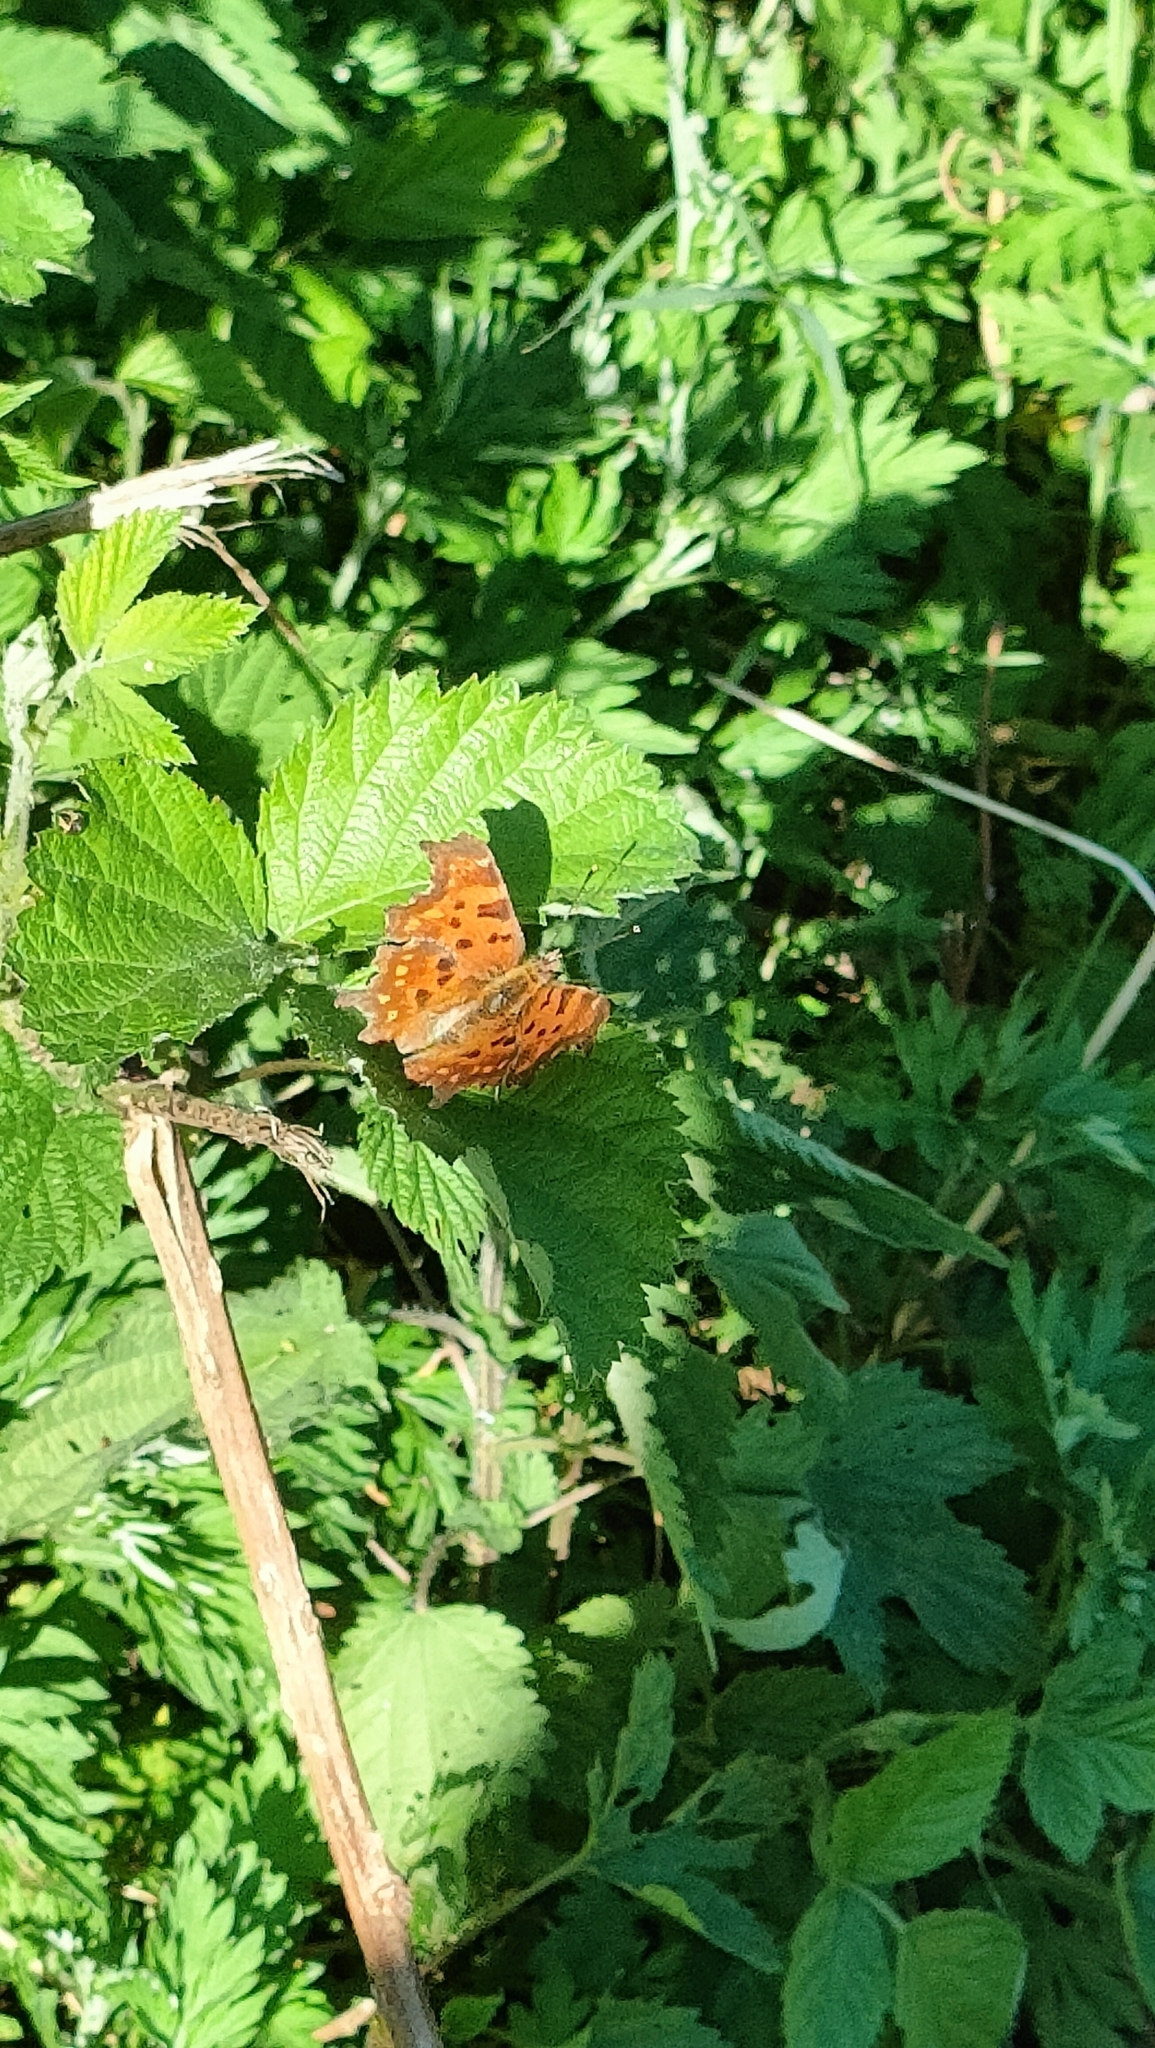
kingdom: Animalia
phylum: Arthropoda
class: Insecta
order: Lepidoptera
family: Nymphalidae
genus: Polygonia
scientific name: Polygonia c-album
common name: Comma
